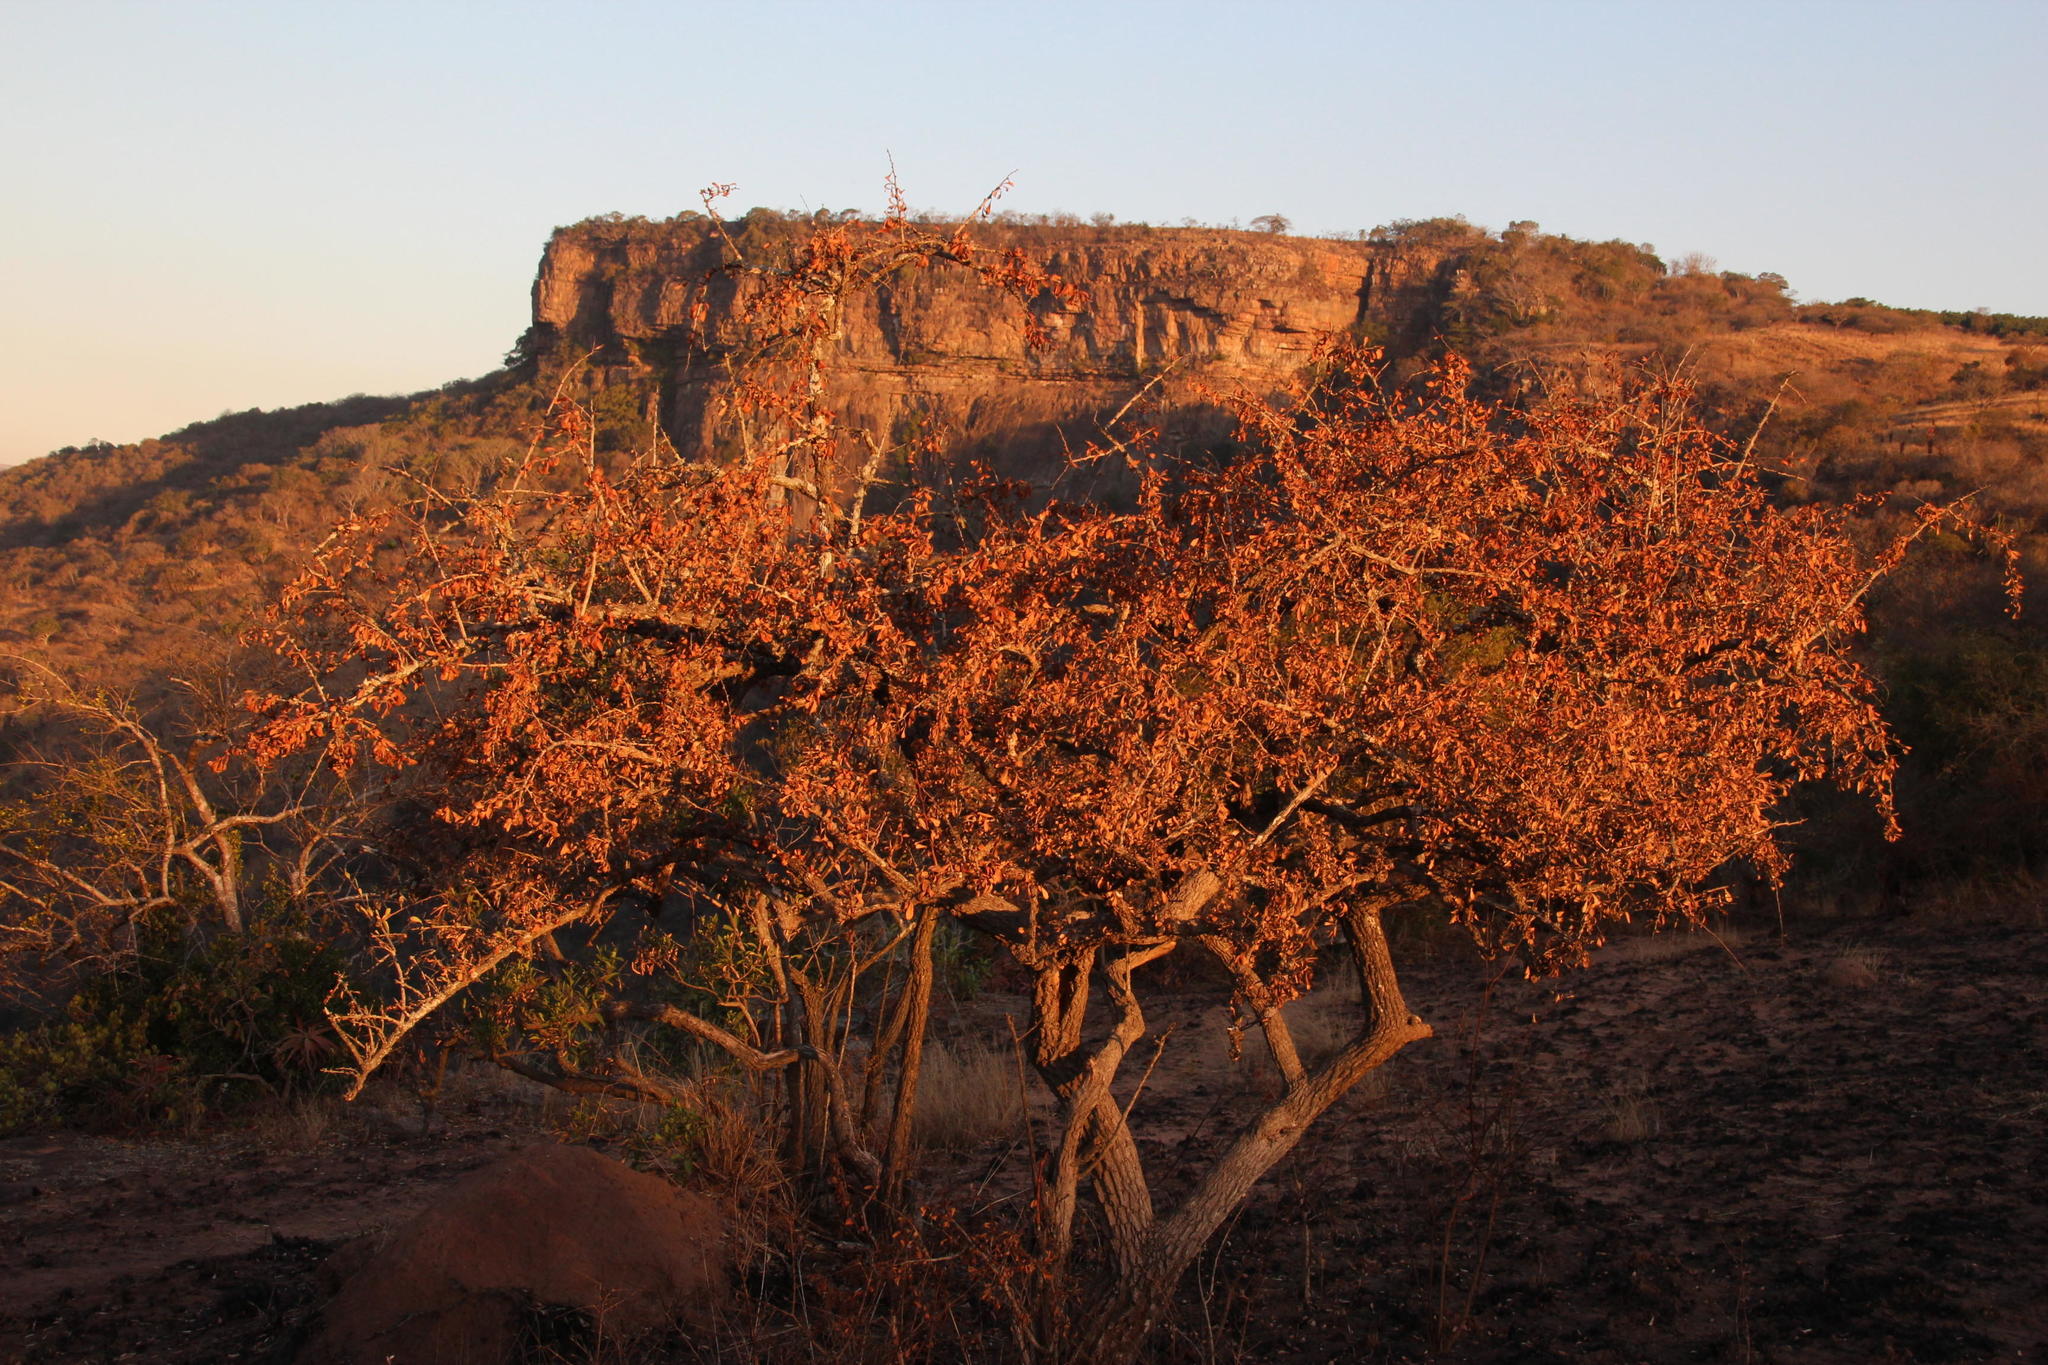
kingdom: Plantae
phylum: Tracheophyta
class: Magnoliopsida
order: Celastrales
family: Celastraceae
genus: Gymnosporia
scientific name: Gymnosporia buxifolia
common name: Common spike-thorn
